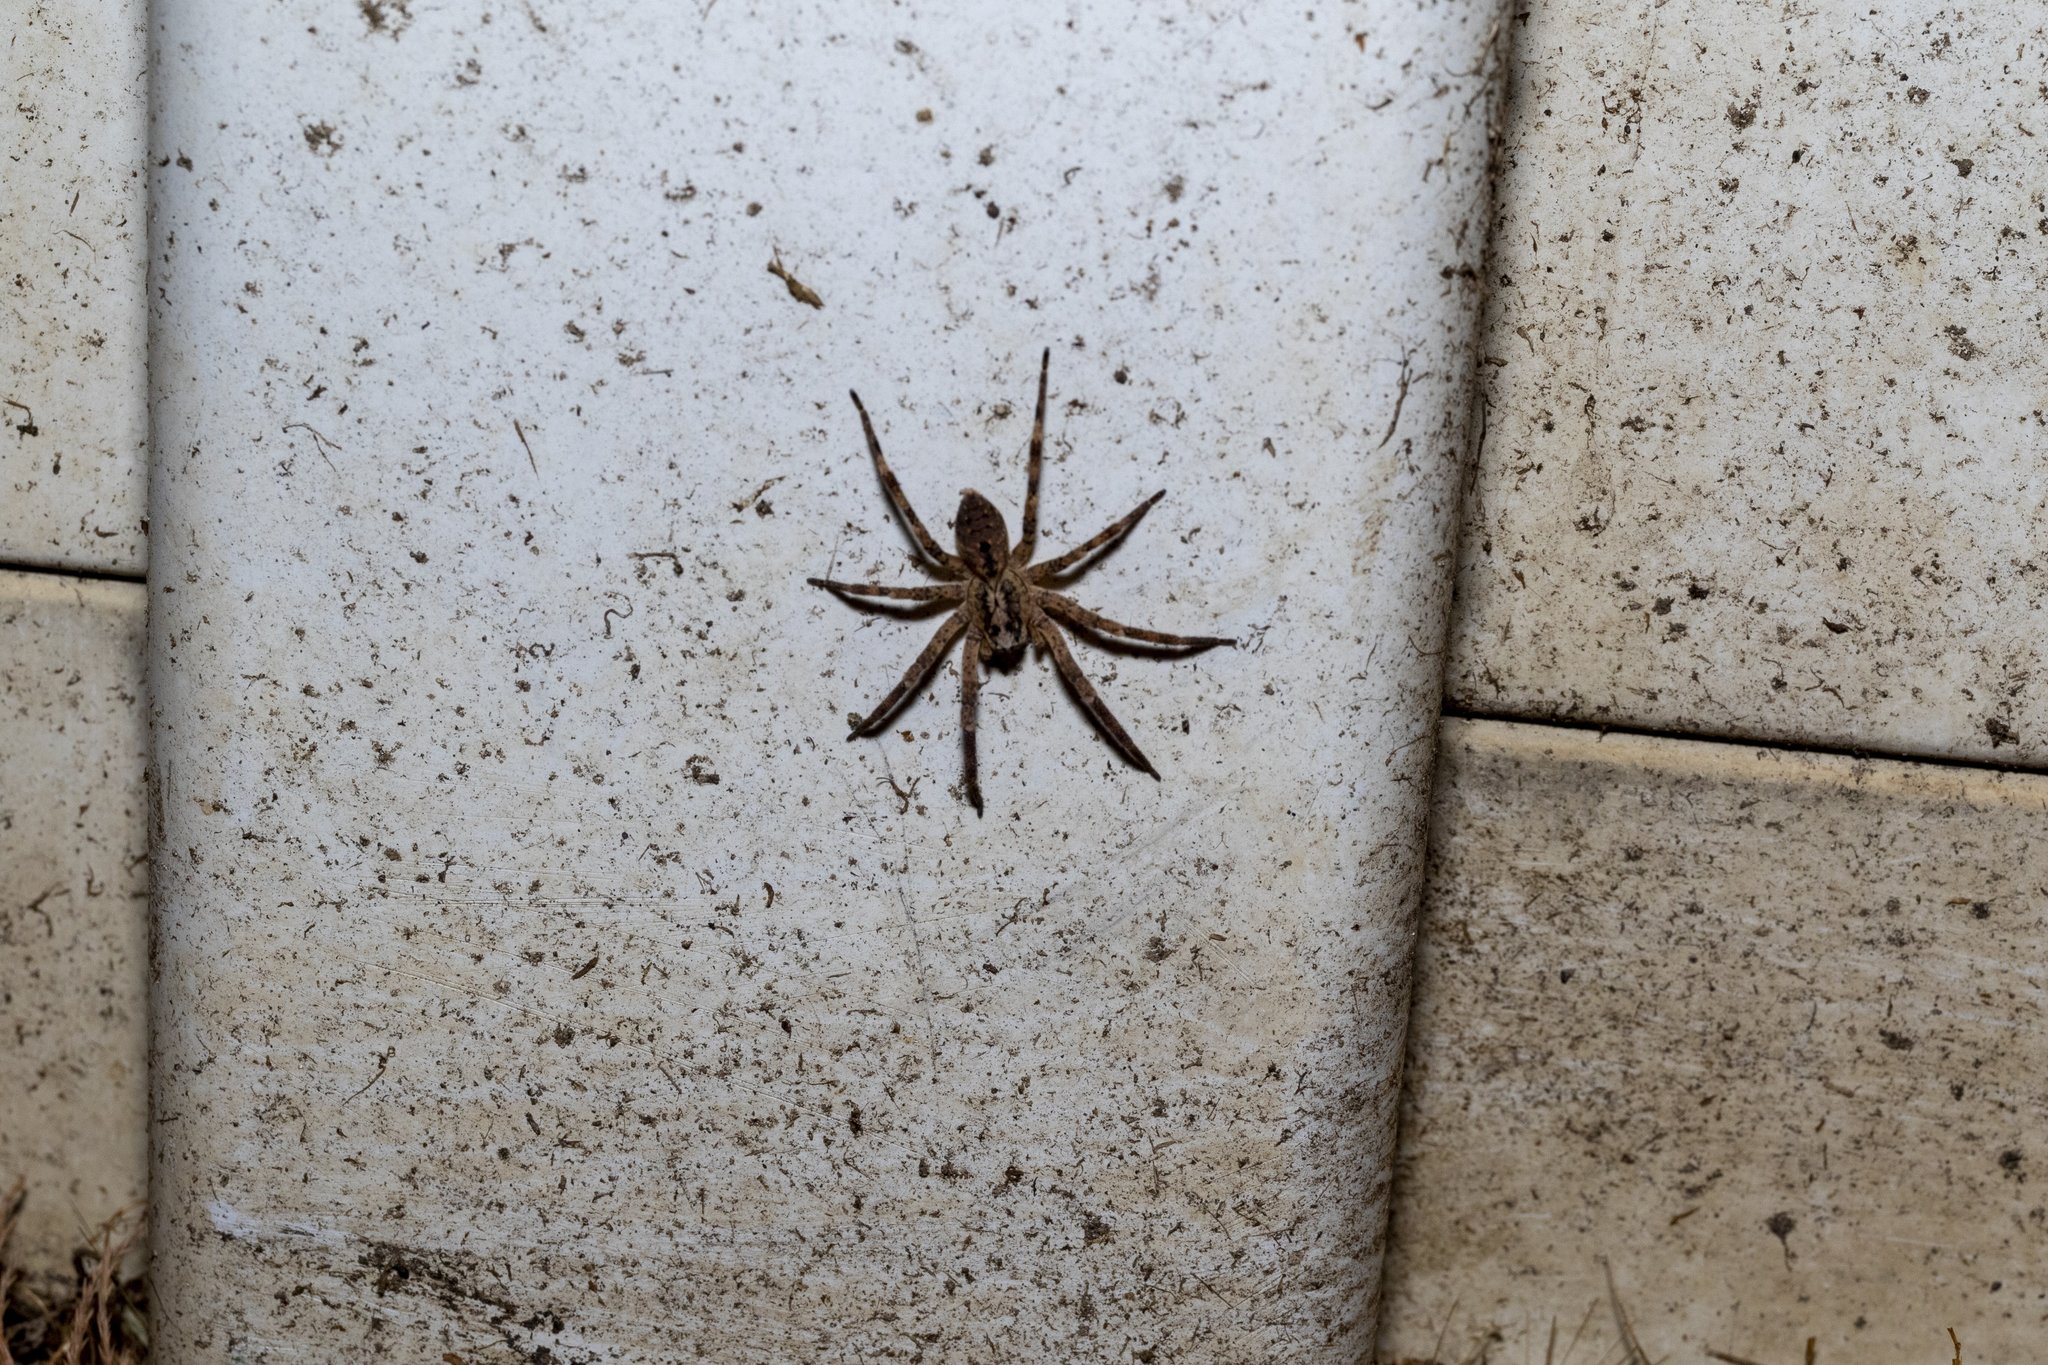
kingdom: Animalia
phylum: Arthropoda
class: Arachnida
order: Araneae
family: Zoropsidae
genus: Zoropsis
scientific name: Zoropsis spinimana
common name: Zoropsid spider
